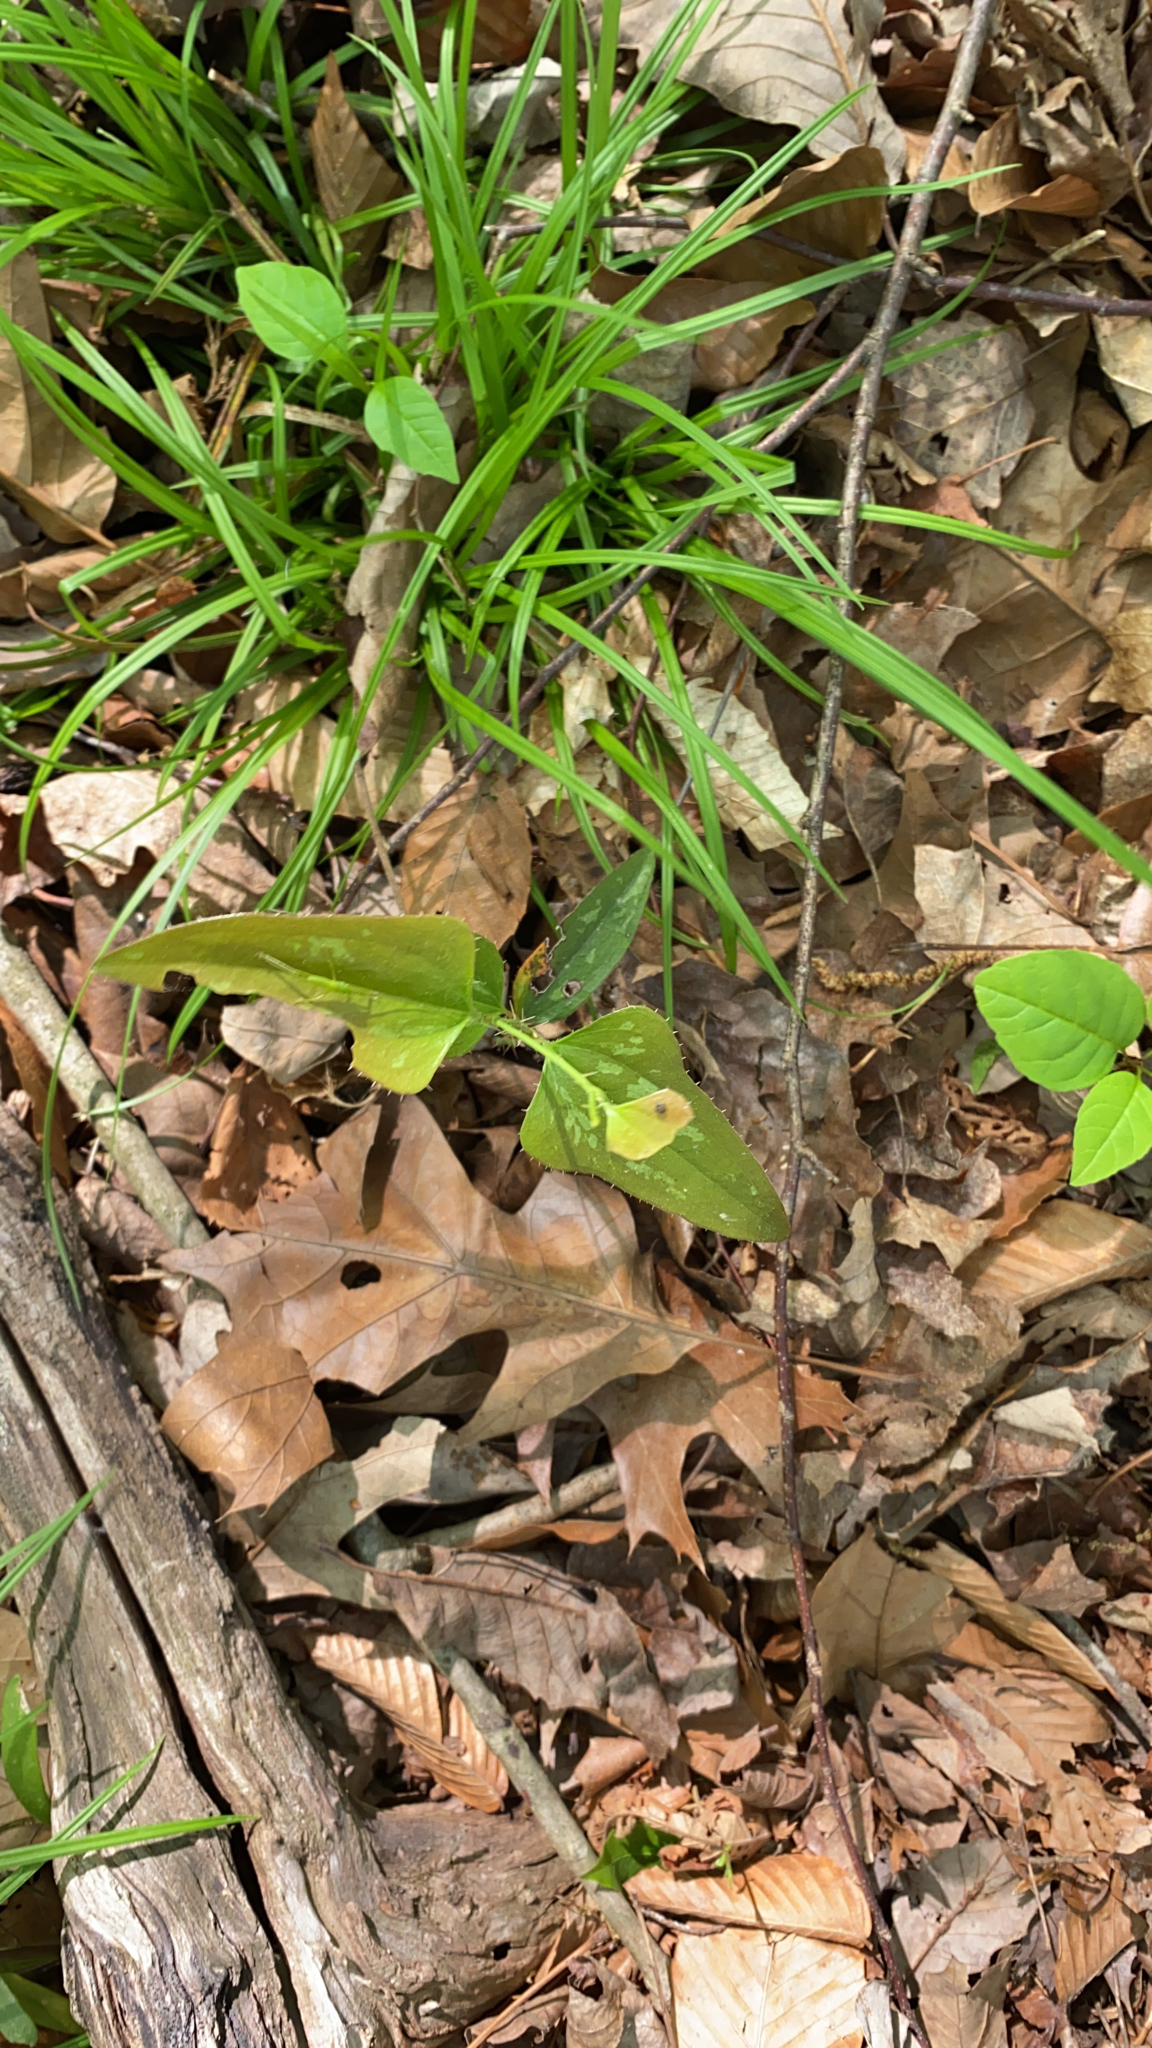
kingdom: Plantae
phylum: Tracheophyta
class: Liliopsida
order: Liliales
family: Smilacaceae
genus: Smilax
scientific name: Smilax bona-nox
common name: Catbrier
